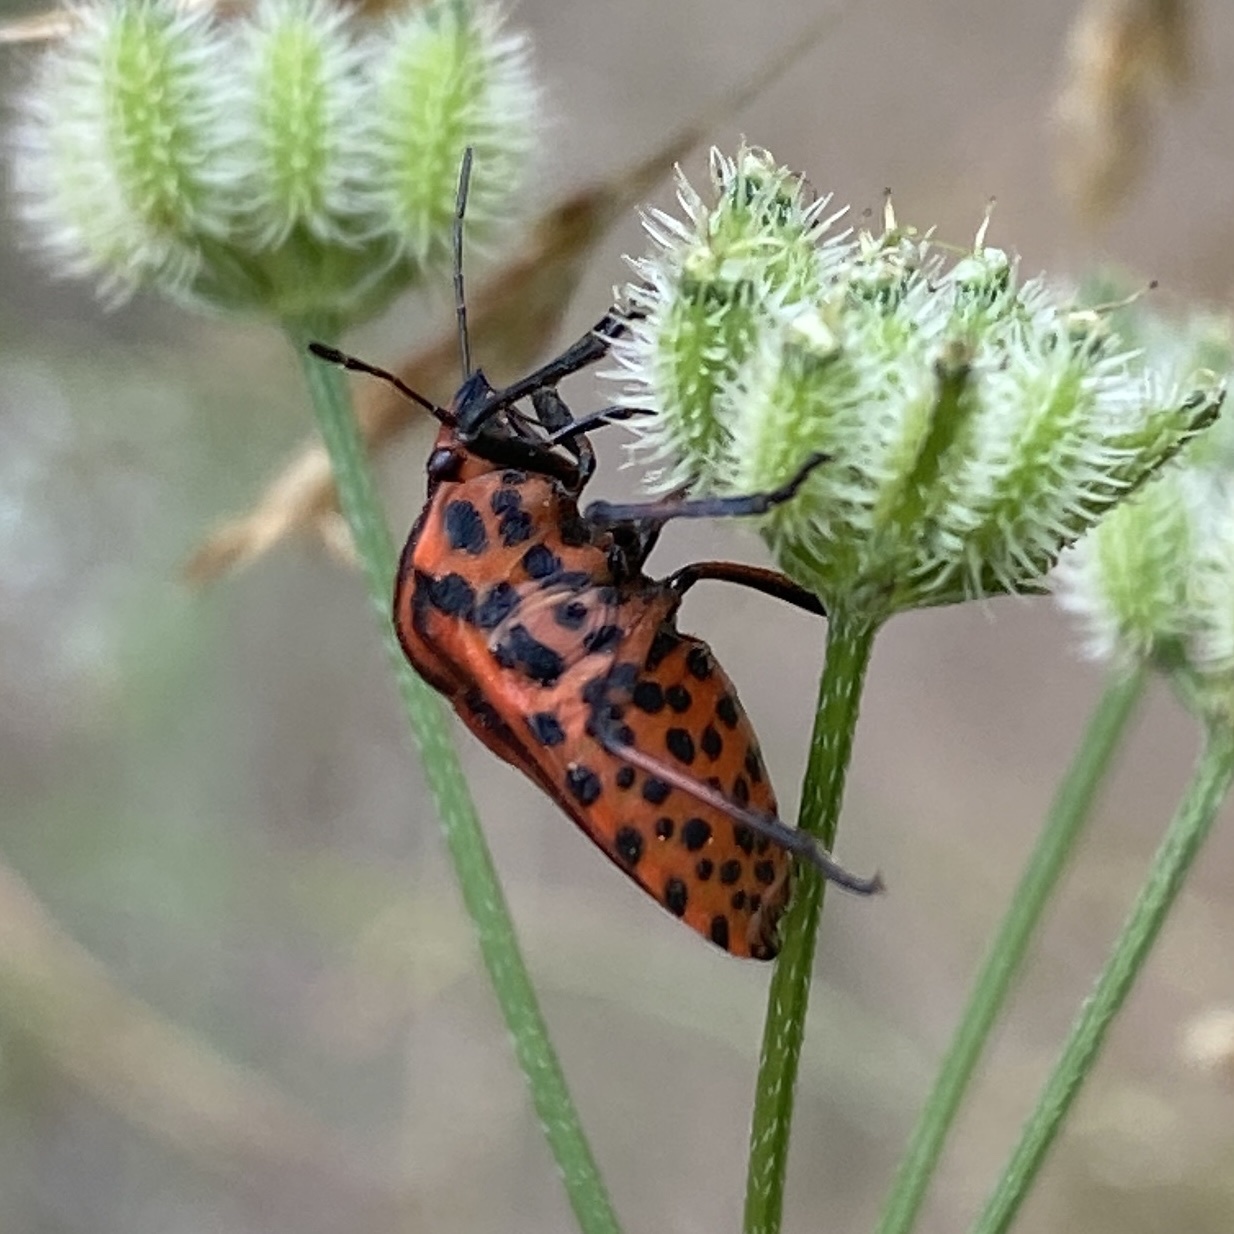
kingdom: Animalia
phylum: Arthropoda
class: Insecta
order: Hemiptera
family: Pentatomidae
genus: Graphosoma
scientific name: Graphosoma italicum
